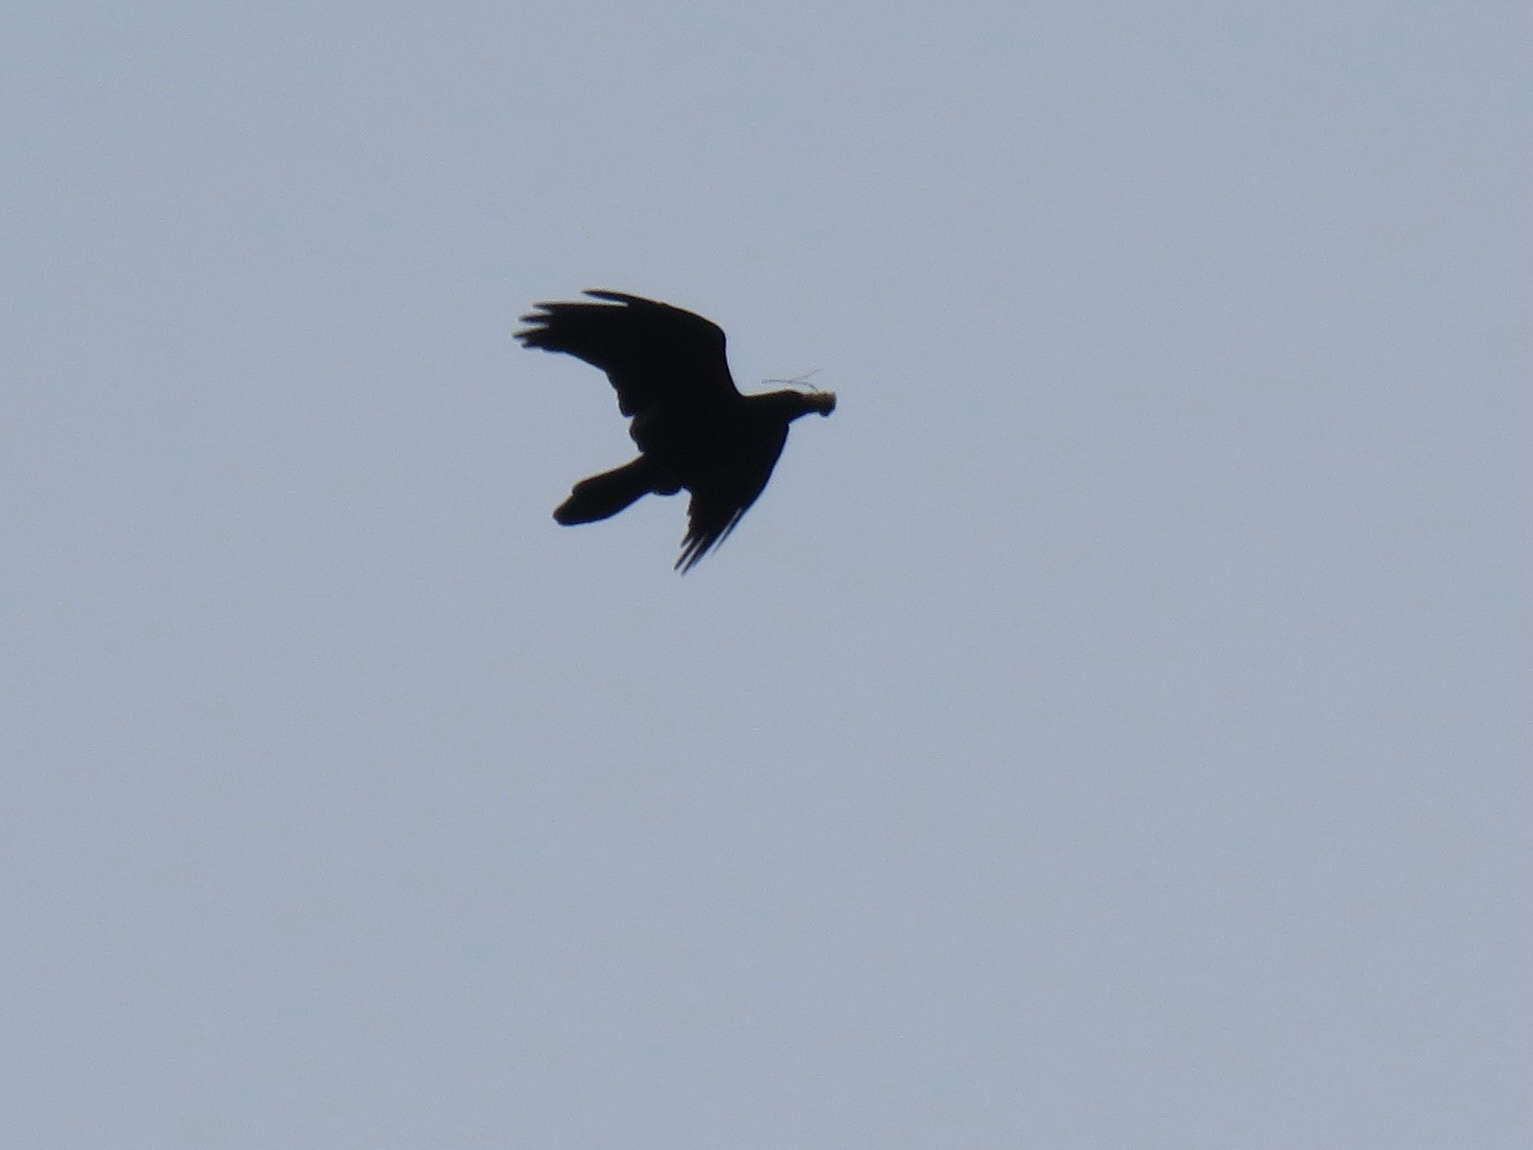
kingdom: Animalia
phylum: Chordata
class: Aves
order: Passeriformes
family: Corvidae
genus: Corvus
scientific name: Corvus corax
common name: Common raven
